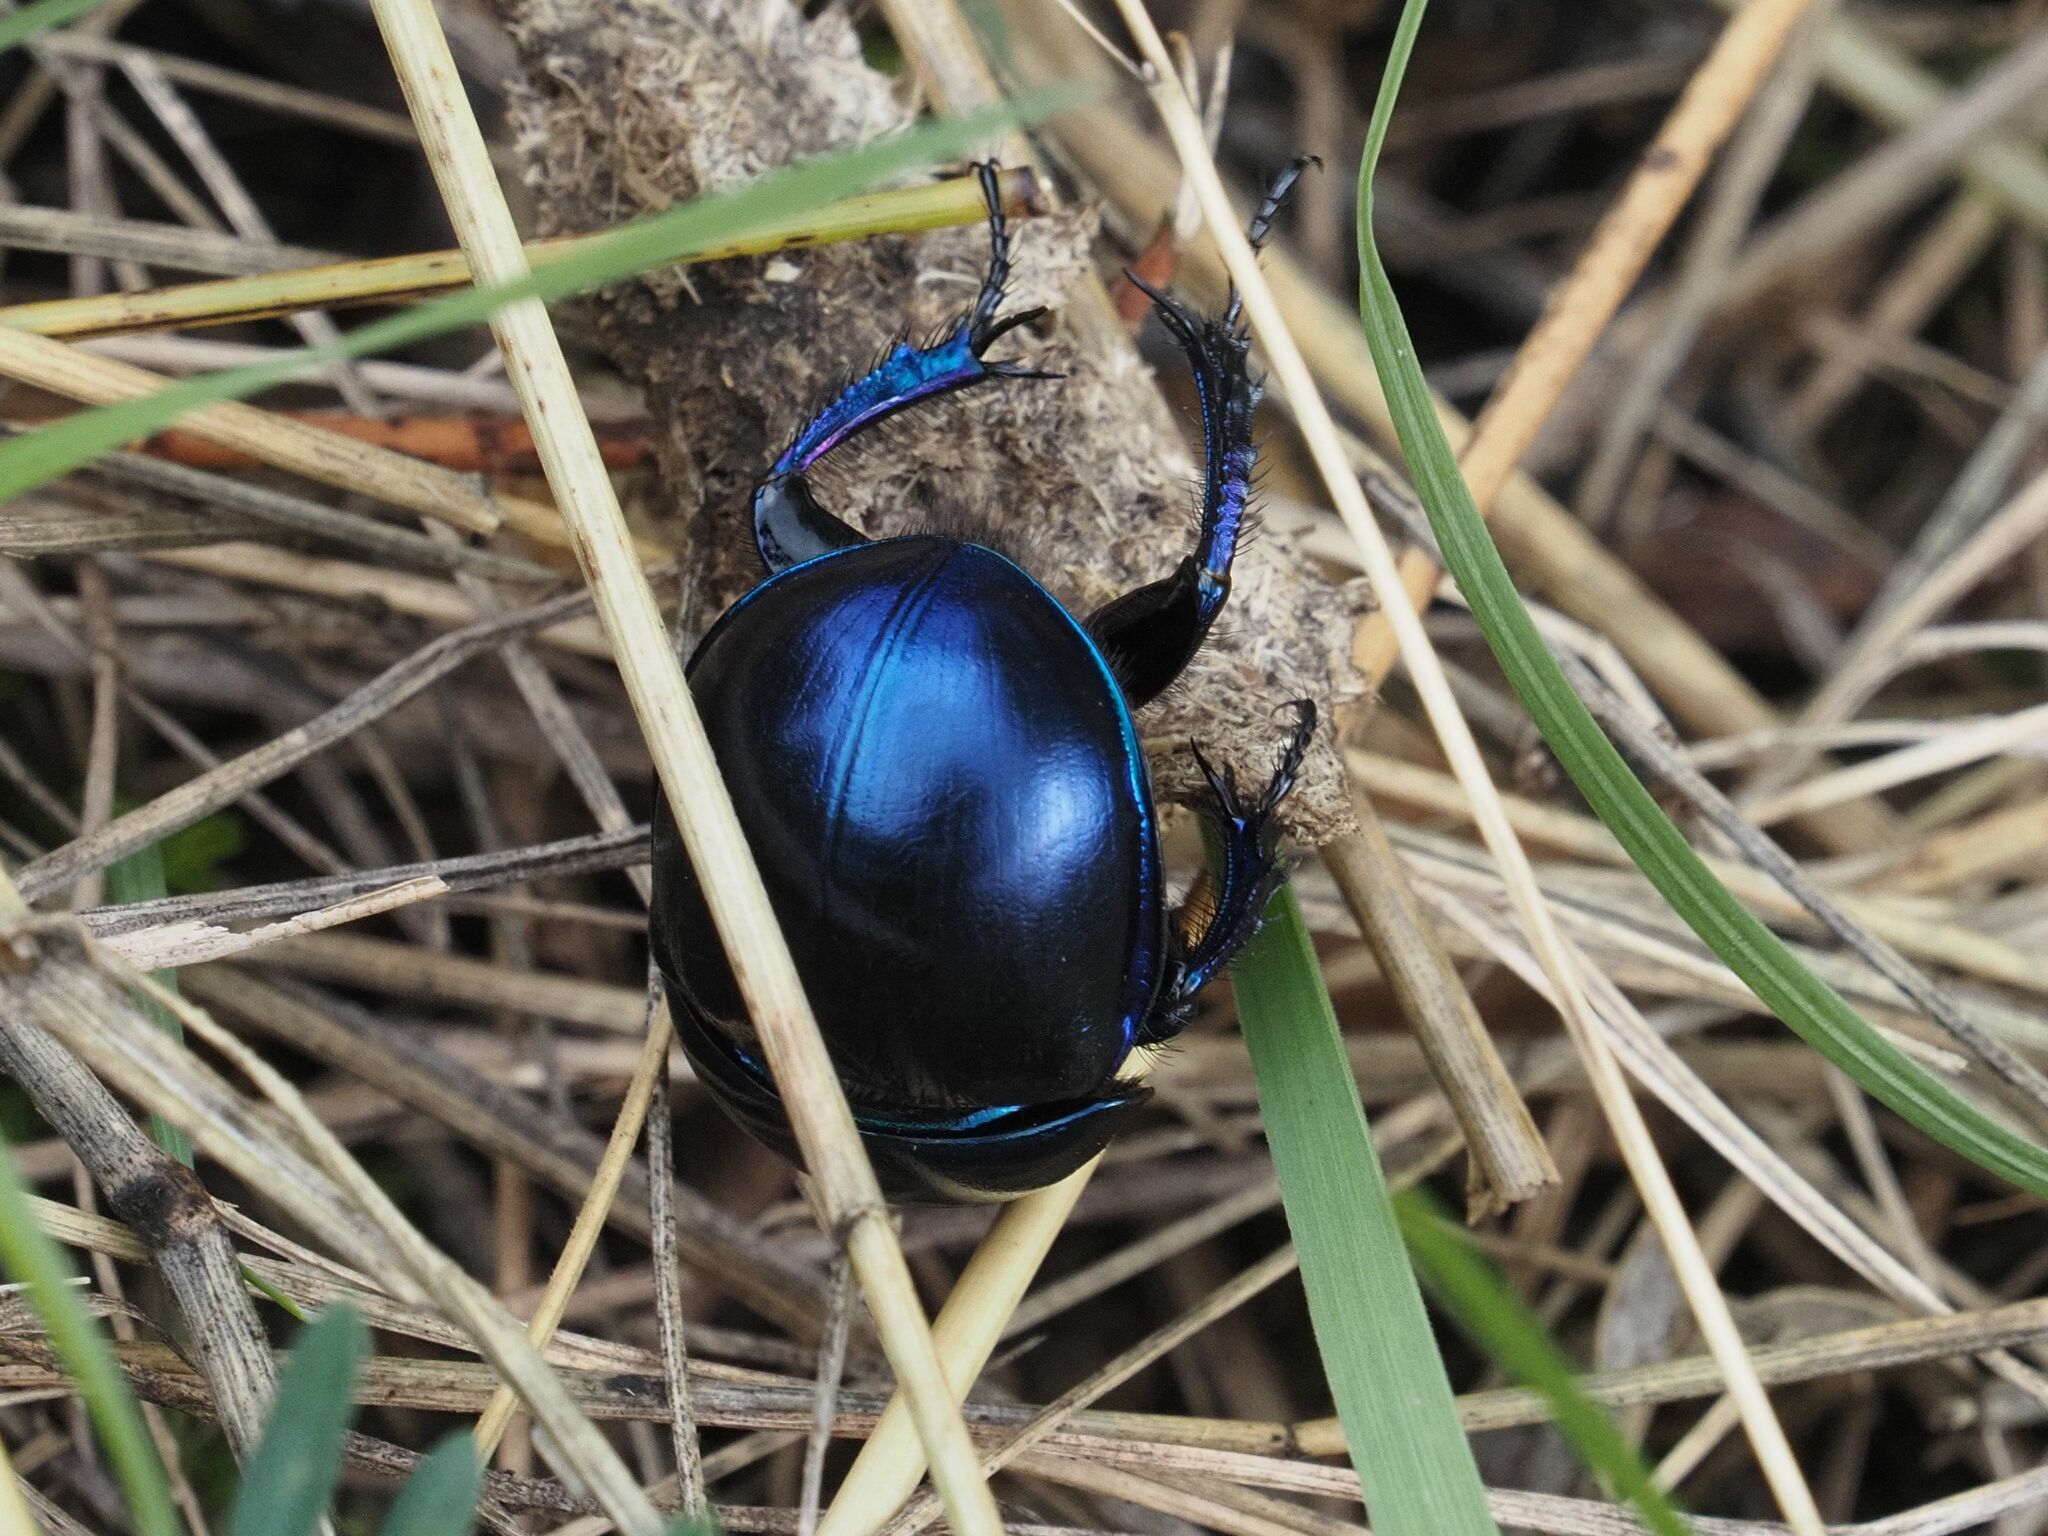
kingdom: Animalia
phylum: Arthropoda
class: Insecta
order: Coleoptera
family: Geotrupidae
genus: Trypocopris
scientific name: Trypocopris vernalis
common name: Spring dumbledor
